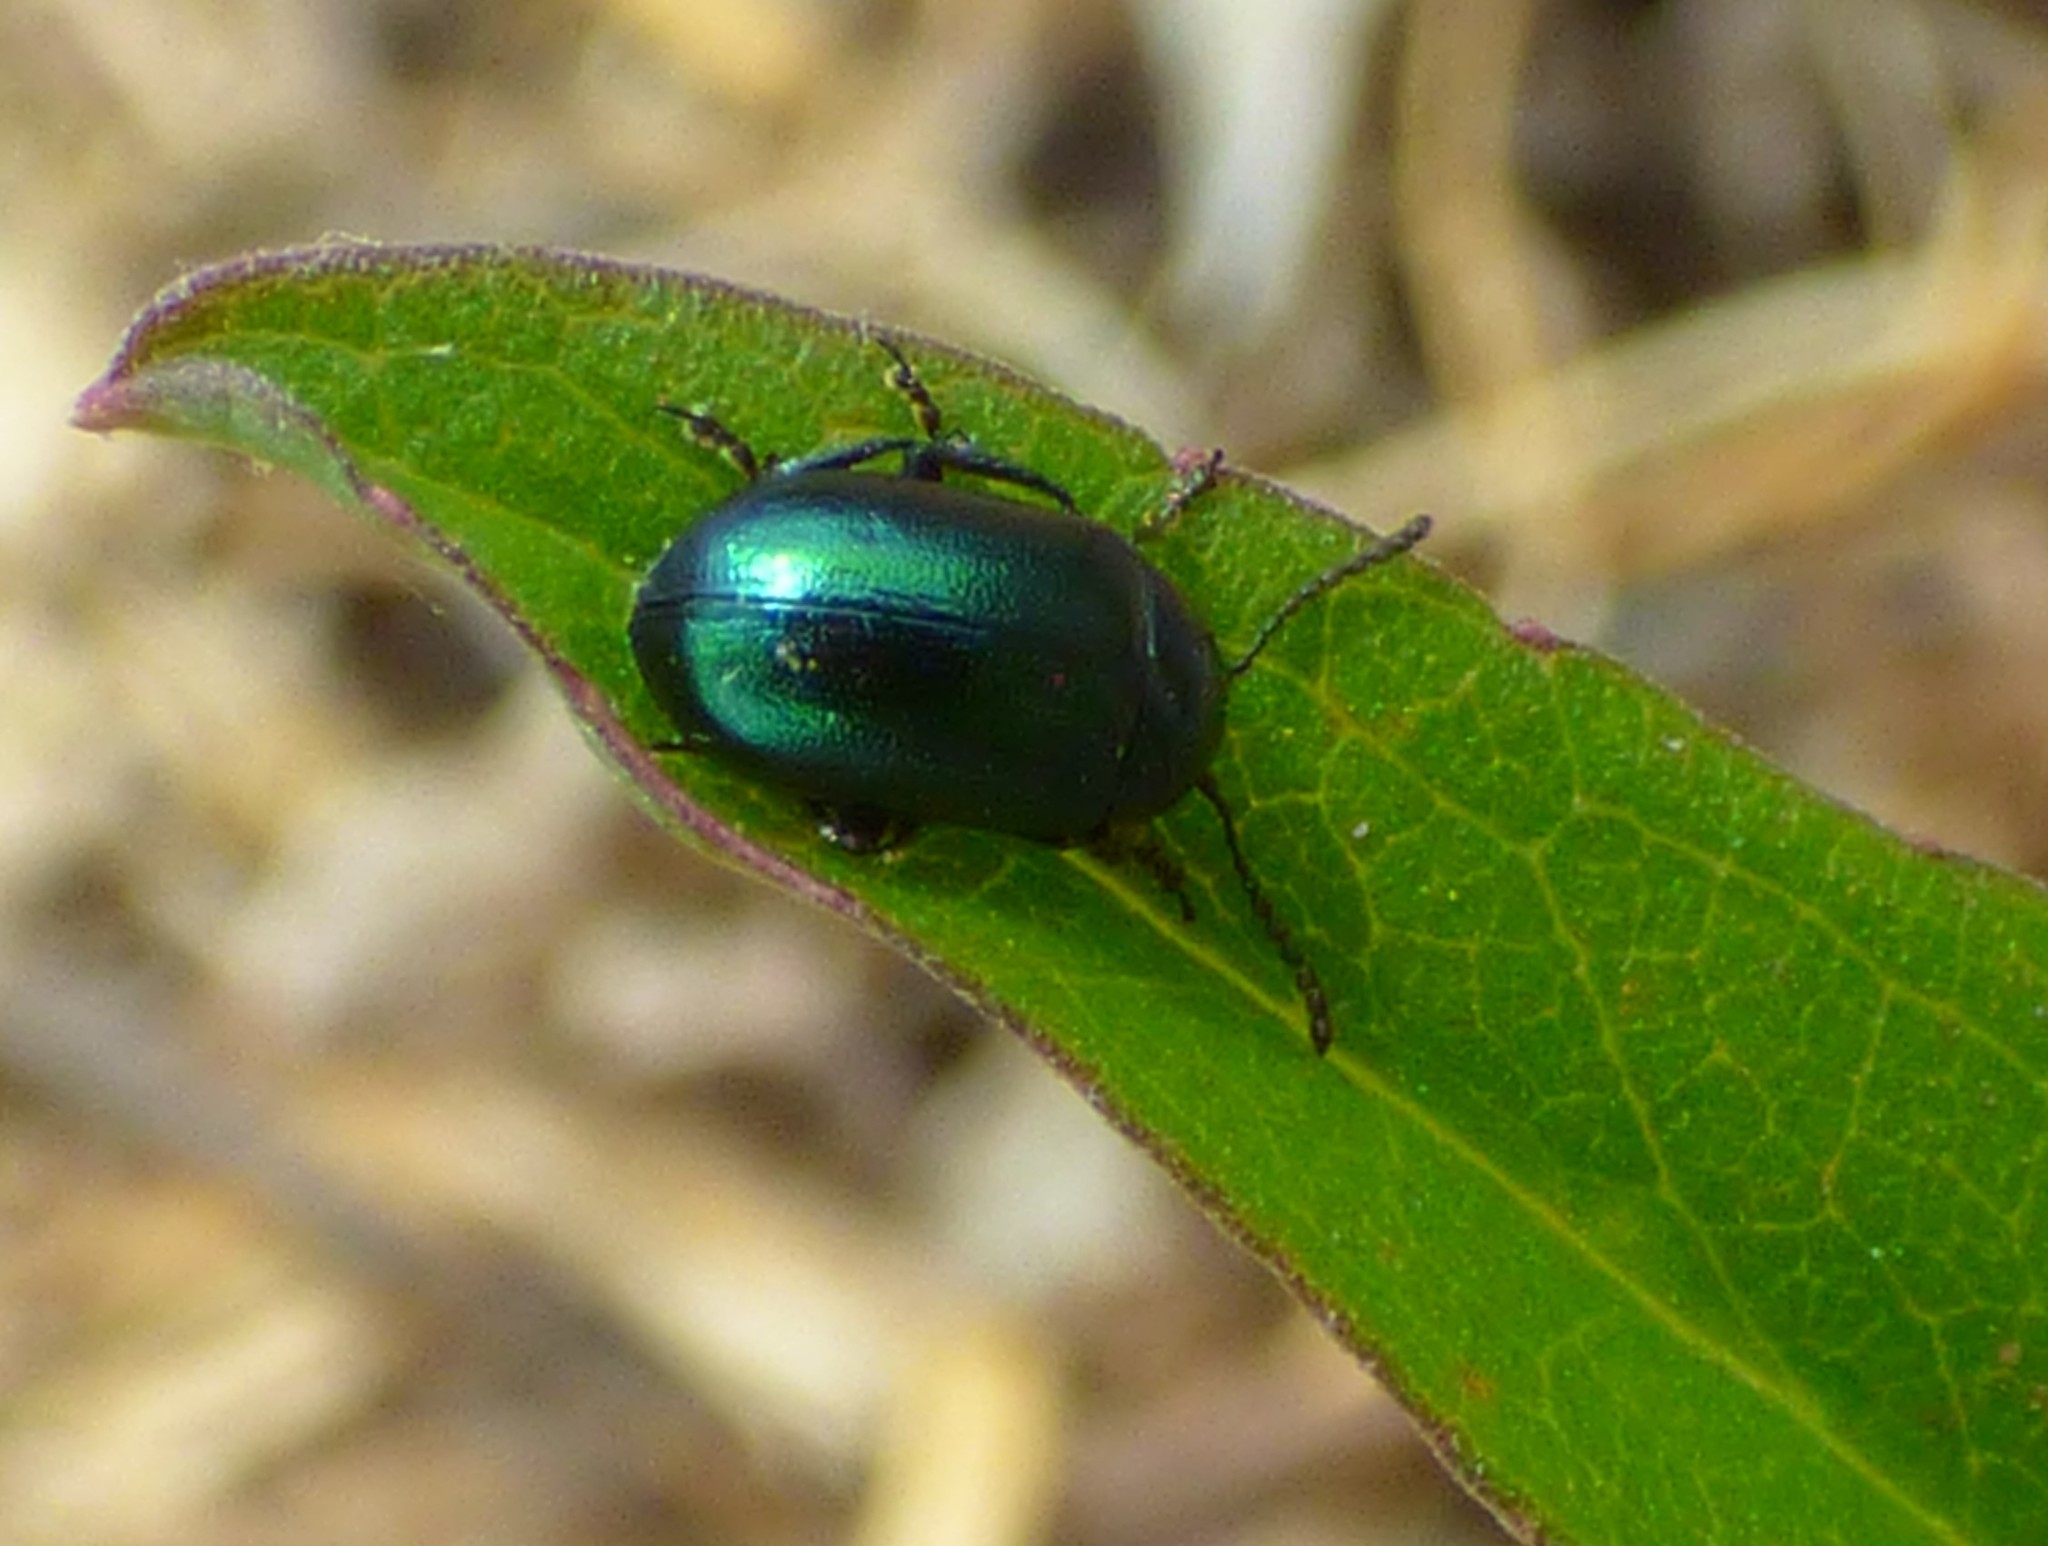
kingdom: Animalia
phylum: Arthropoda
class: Insecta
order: Coleoptera
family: Chrysomelidae
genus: Gastrophysa
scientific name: Gastrophysa cyanea
